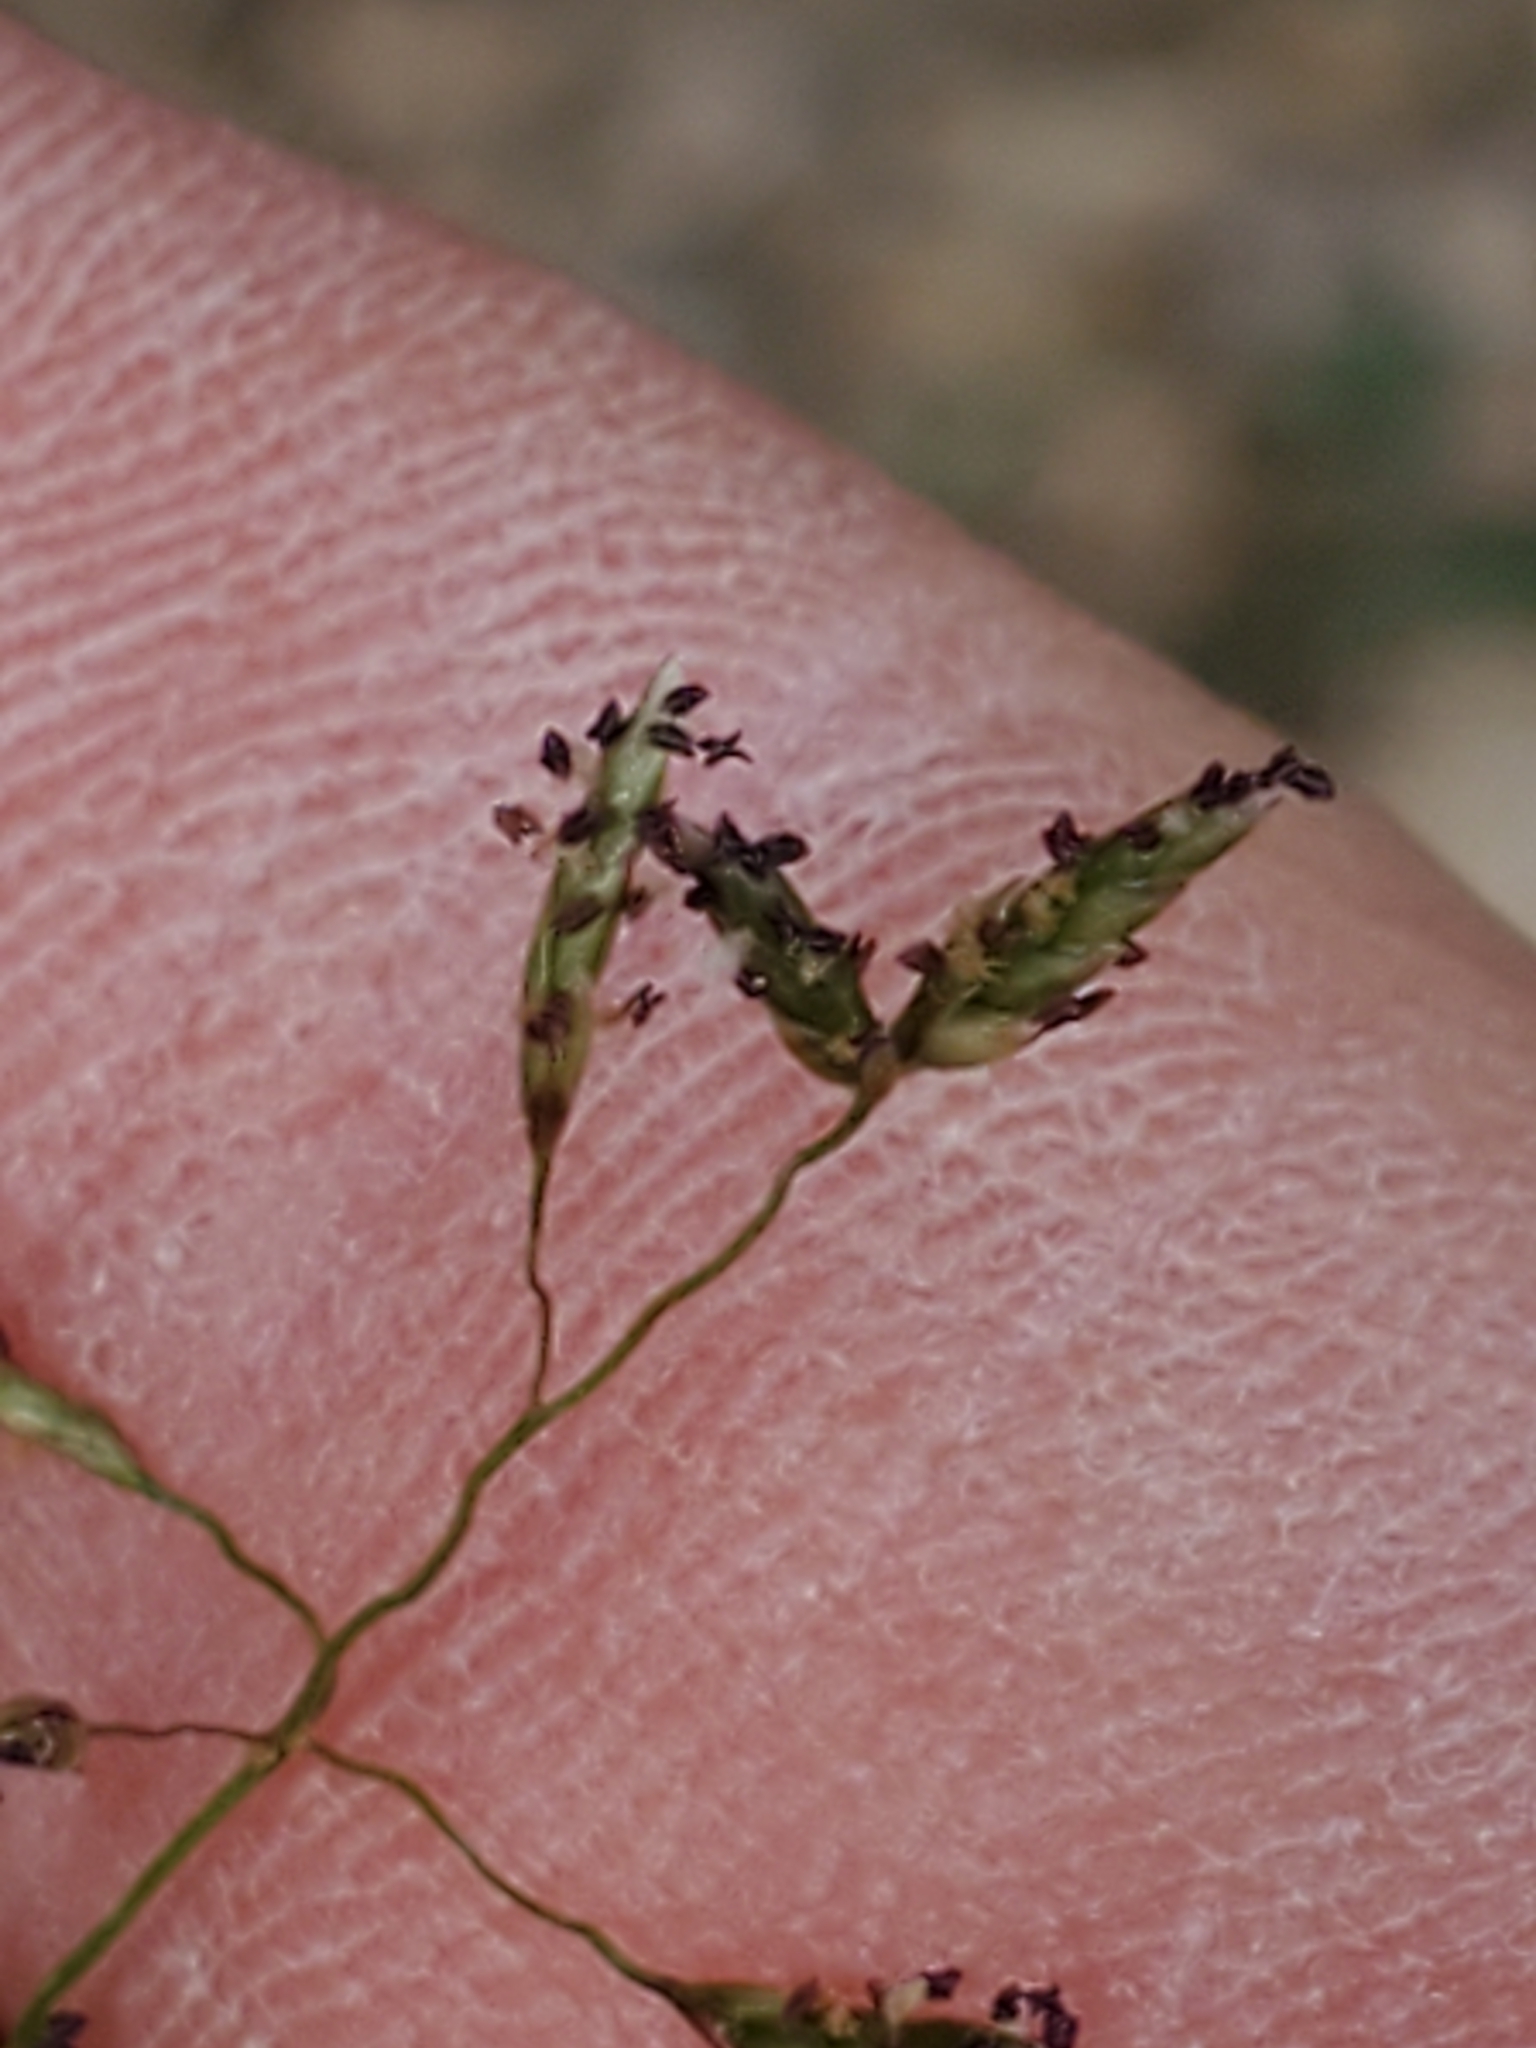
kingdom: Plantae
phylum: Tracheophyta
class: Liliopsida
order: Poales
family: Poaceae
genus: Eragrostis
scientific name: Eragrostis intermedia
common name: Plains love grass
